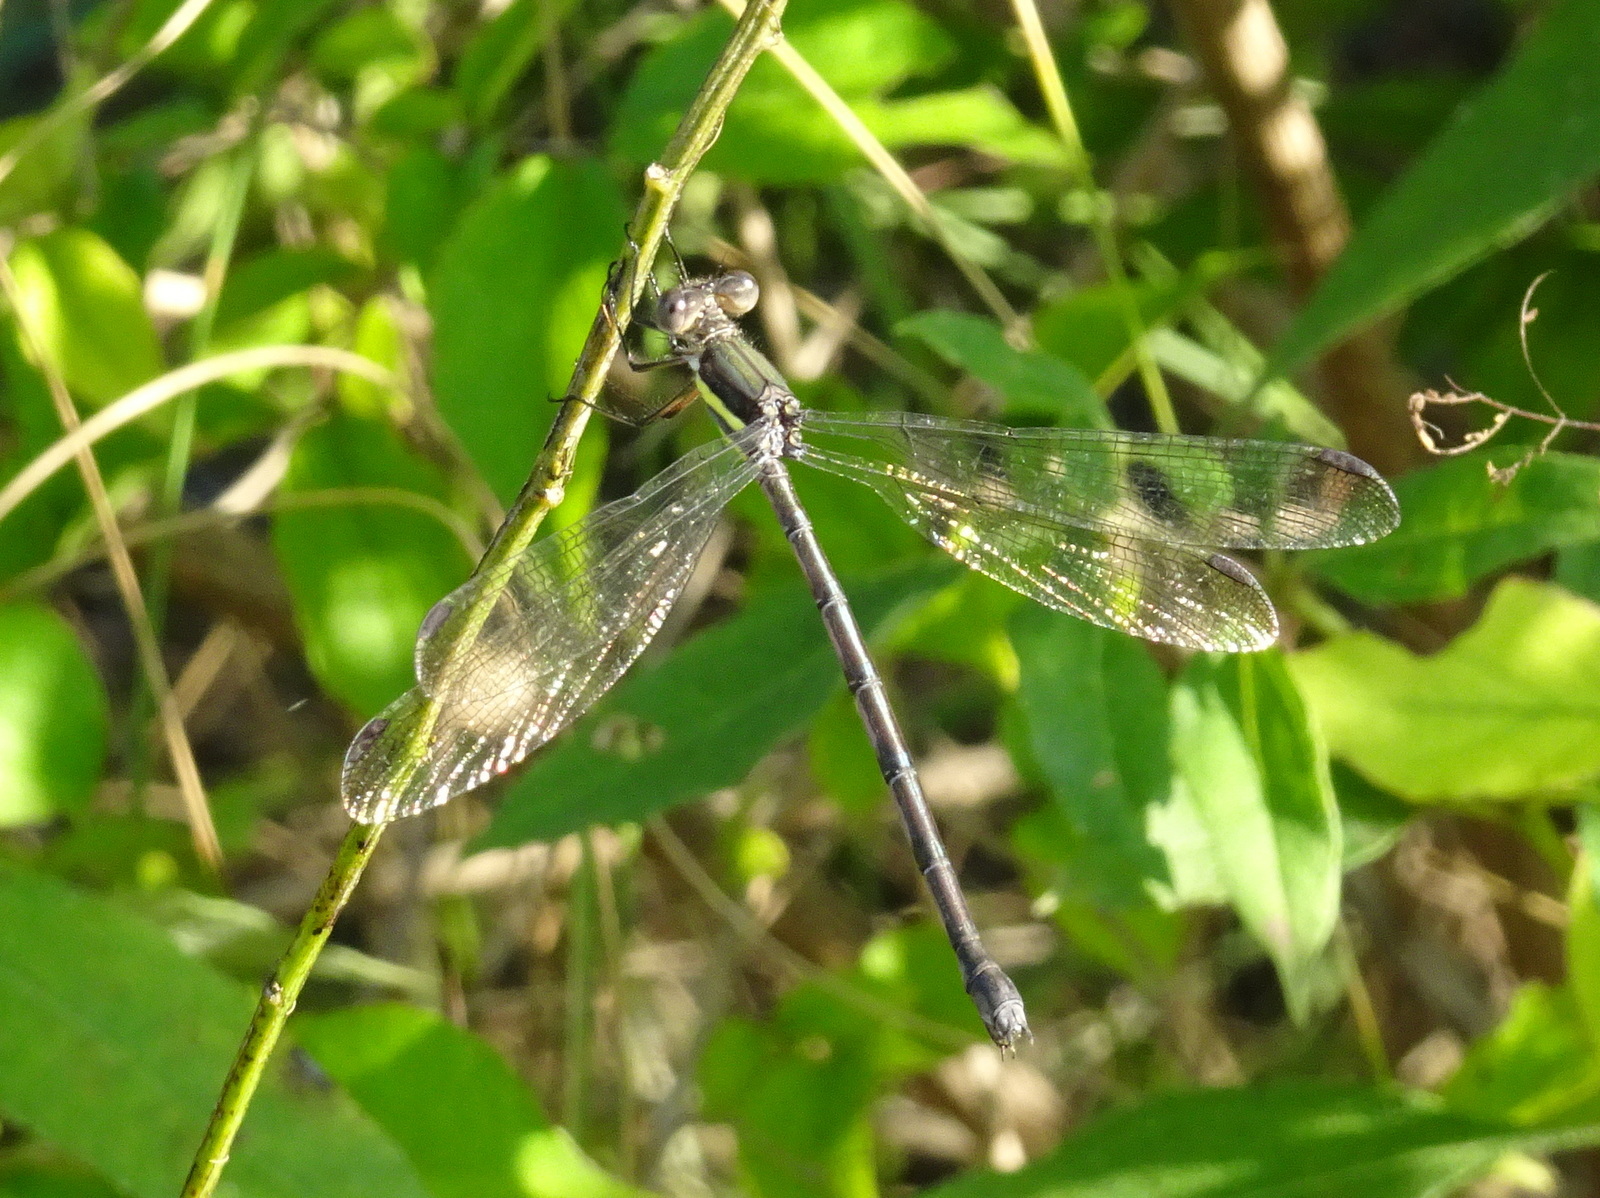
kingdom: Animalia
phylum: Arthropoda
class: Insecta
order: Odonata
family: Lestidae
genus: Archilestes
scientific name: Archilestes grandis
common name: Great spreadwing
